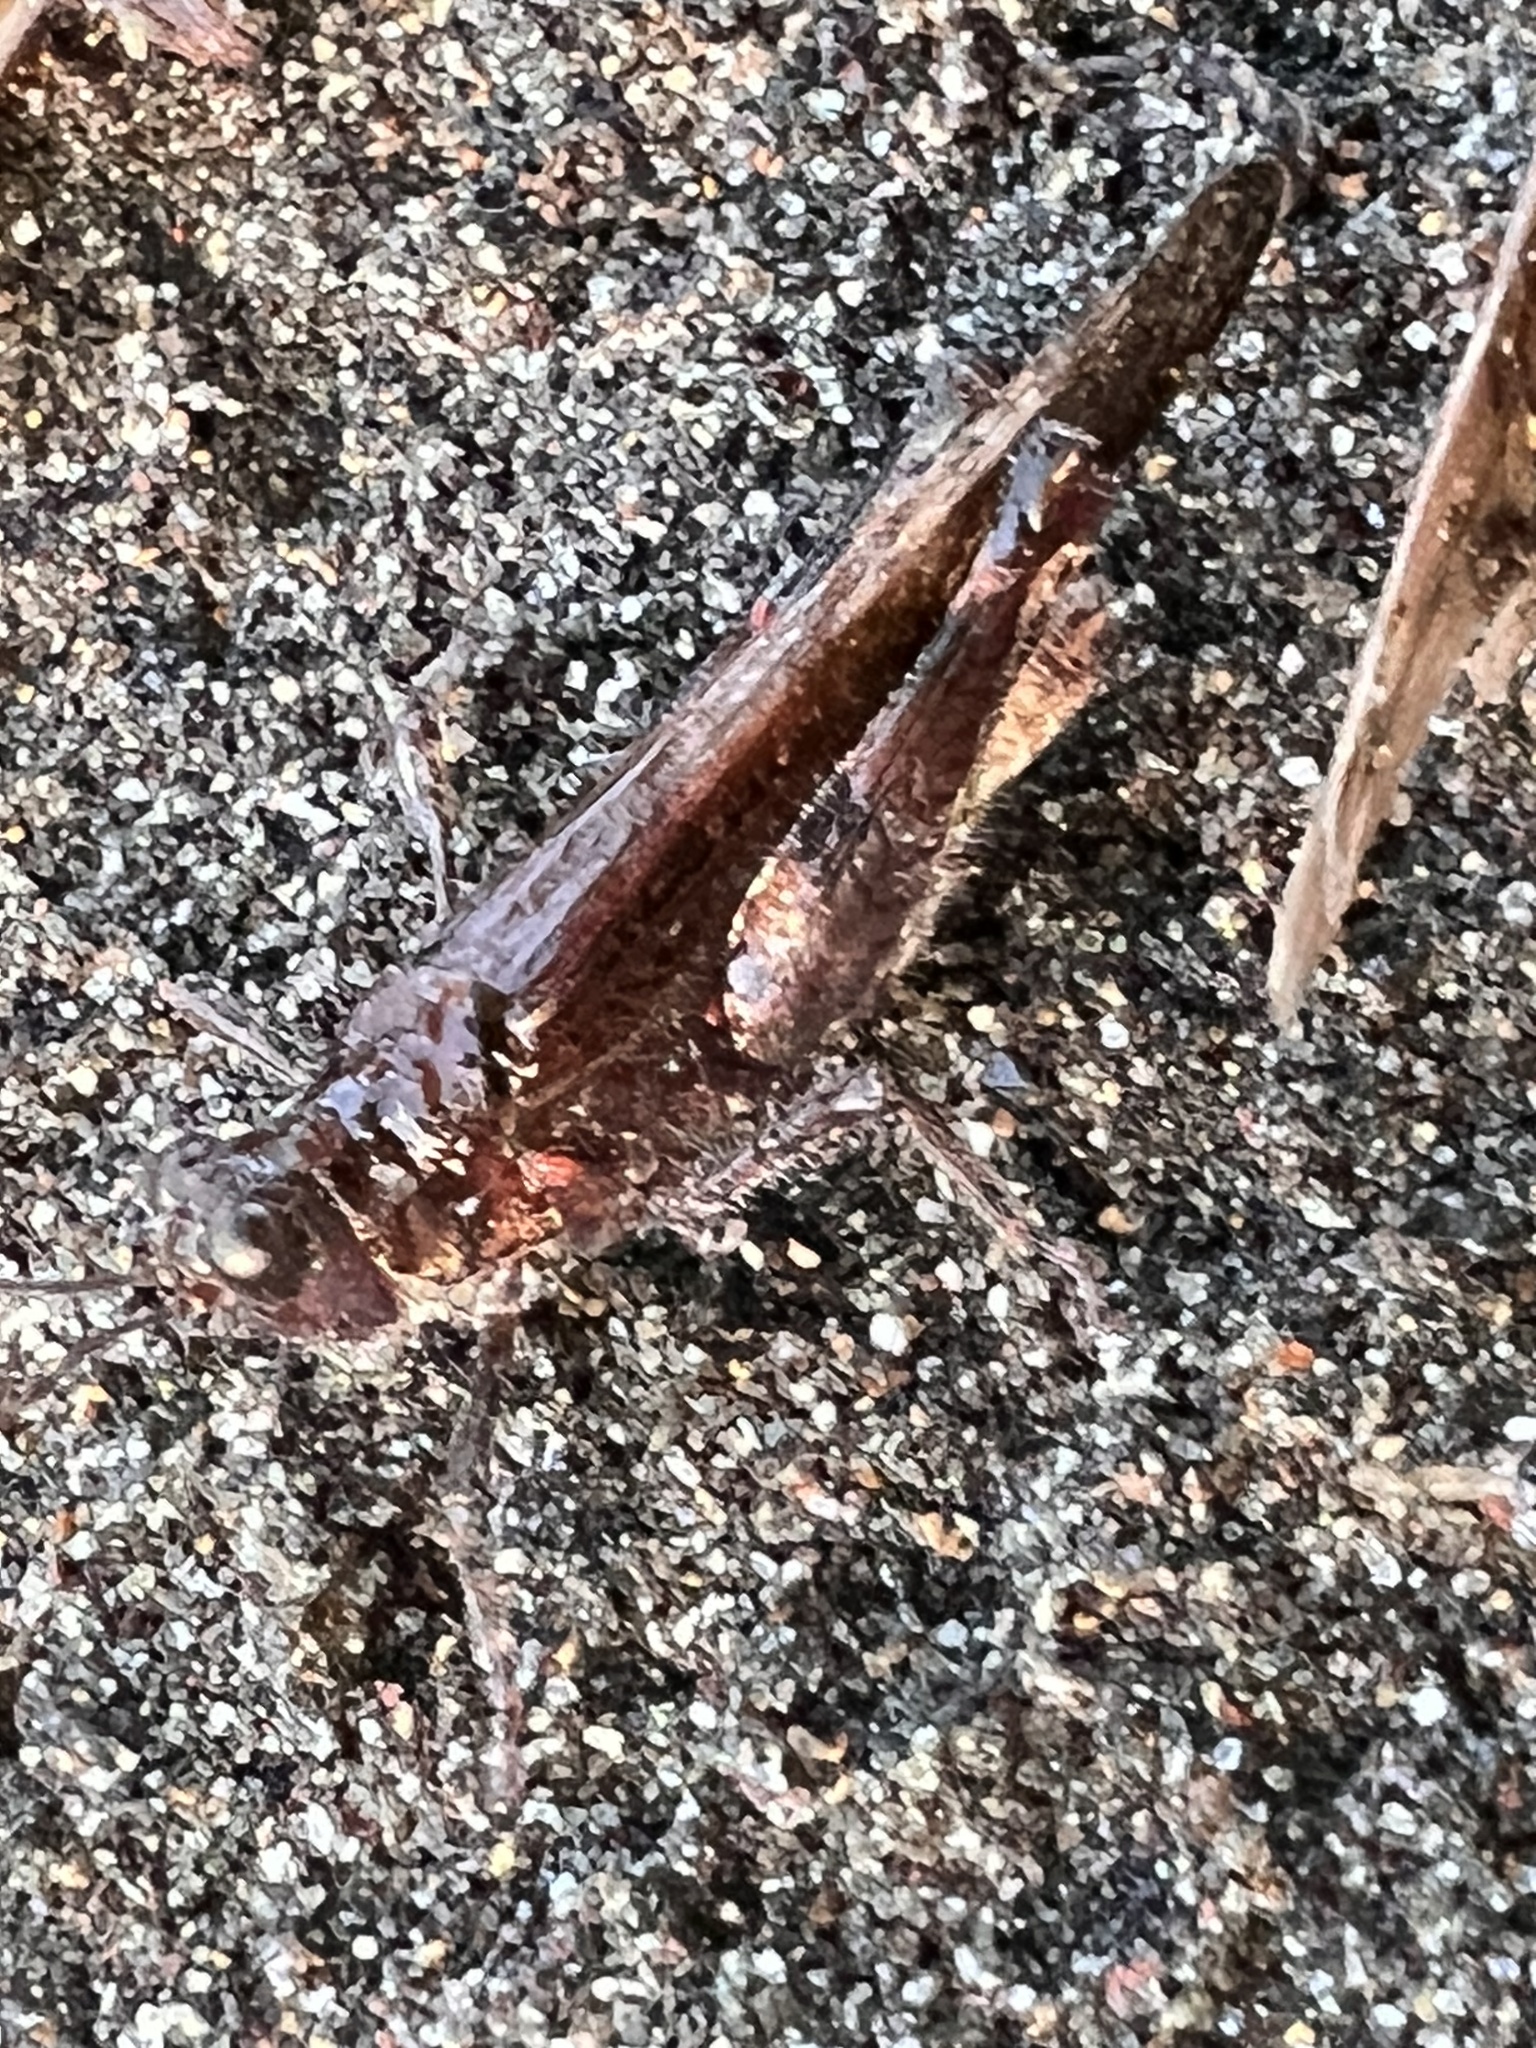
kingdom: Animalia
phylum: Arthropoda
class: Insecta
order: Orthoptera
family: Acrididae
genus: Heliastus
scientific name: Heliastus sumichrasti
